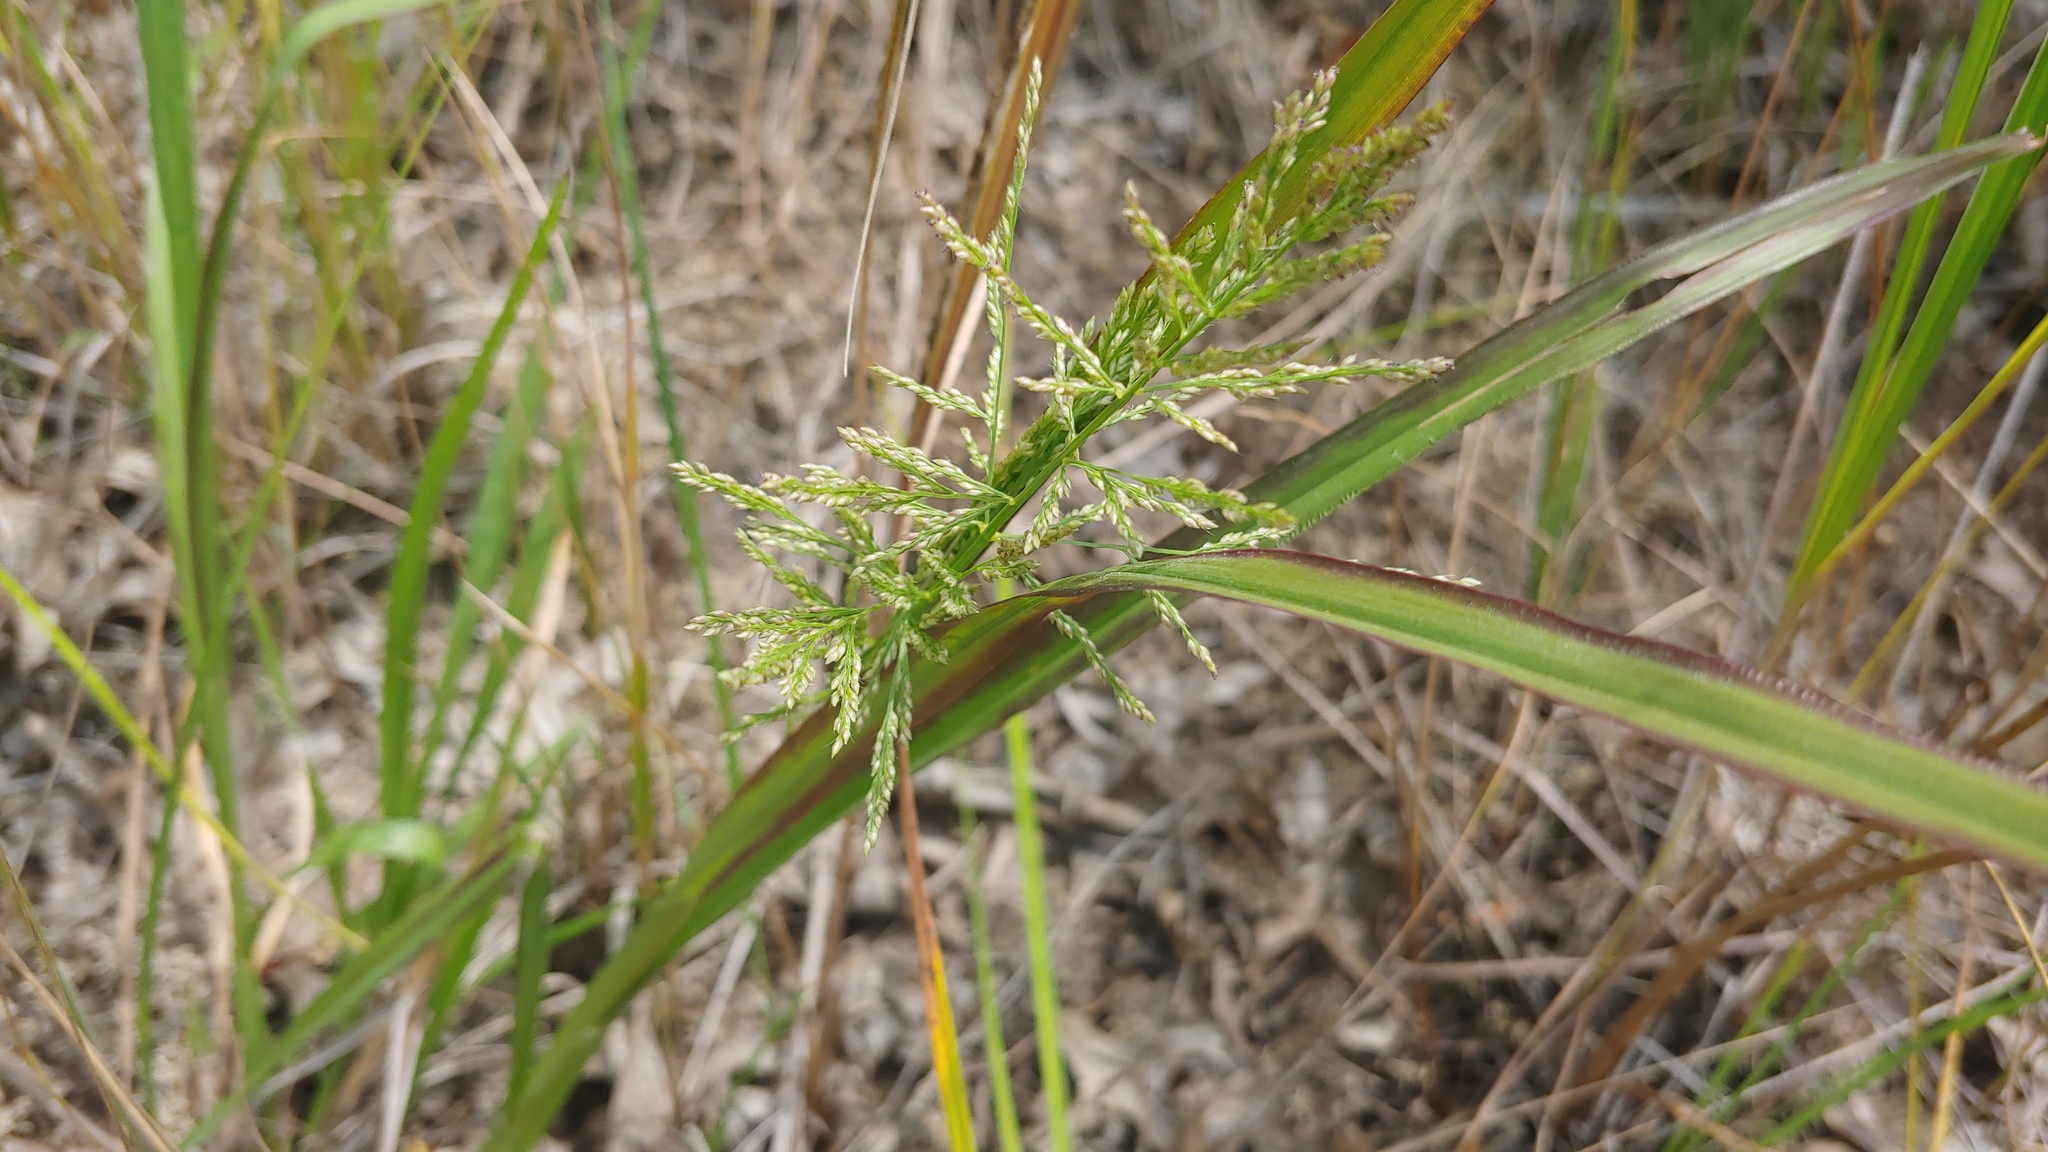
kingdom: Plantae
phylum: Tracheophyta
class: Liliopsida
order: Poales
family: Poaceae
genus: Coleataenia
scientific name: Coleataenia rigidula
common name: Redtop panicgrass
